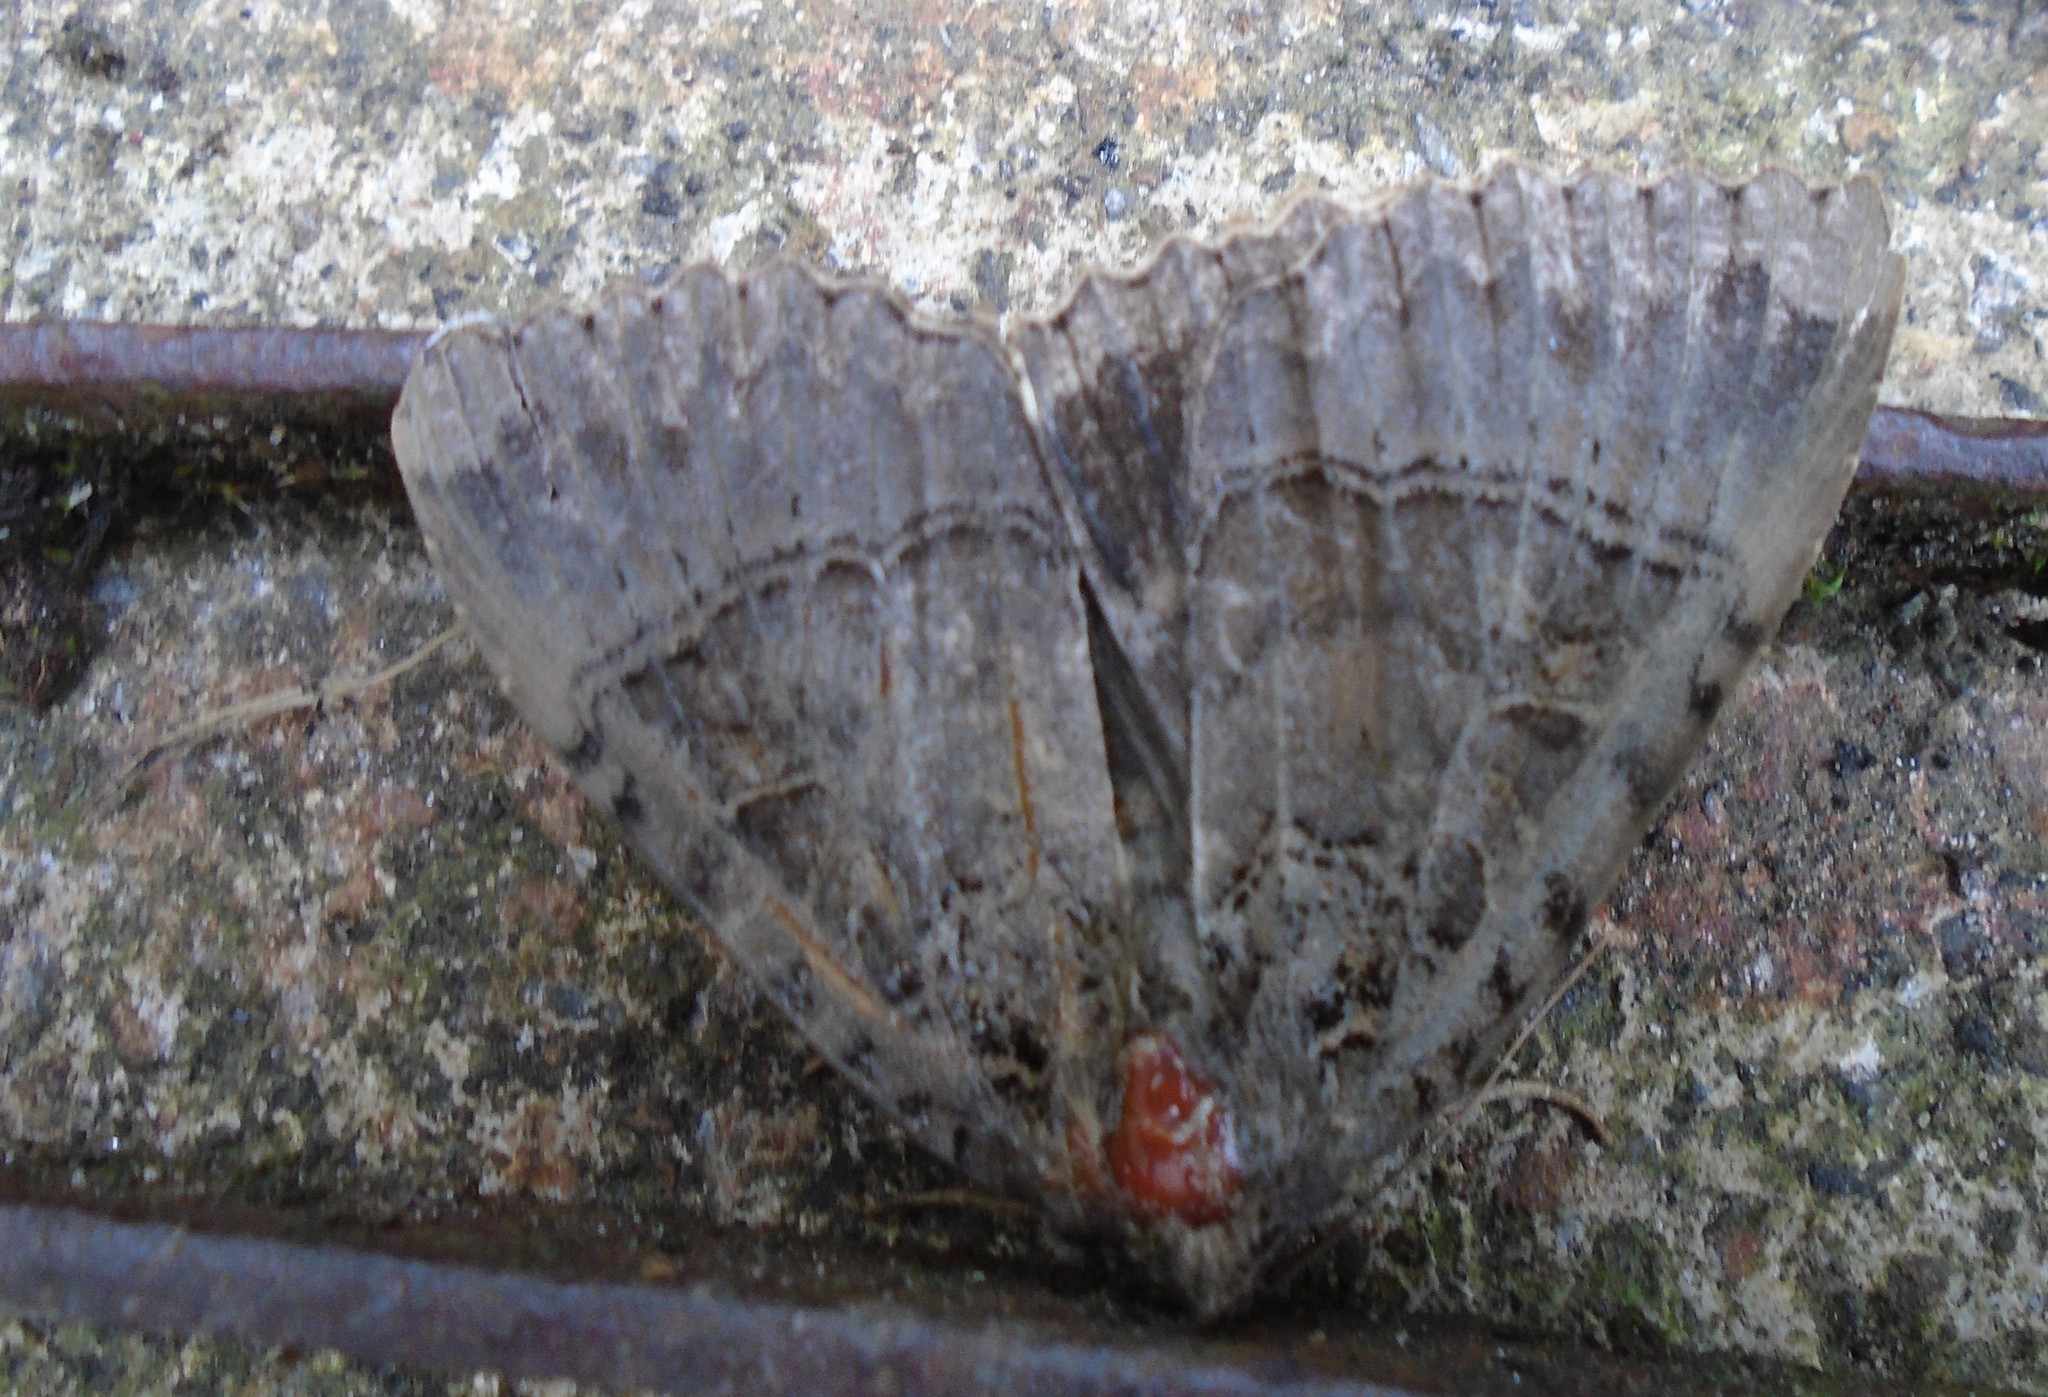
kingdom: Animalia
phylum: Arthropoda
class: Insecta
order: Lepidoptera
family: Noctuidae
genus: Mormo
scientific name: Mormo maura
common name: Old lady
